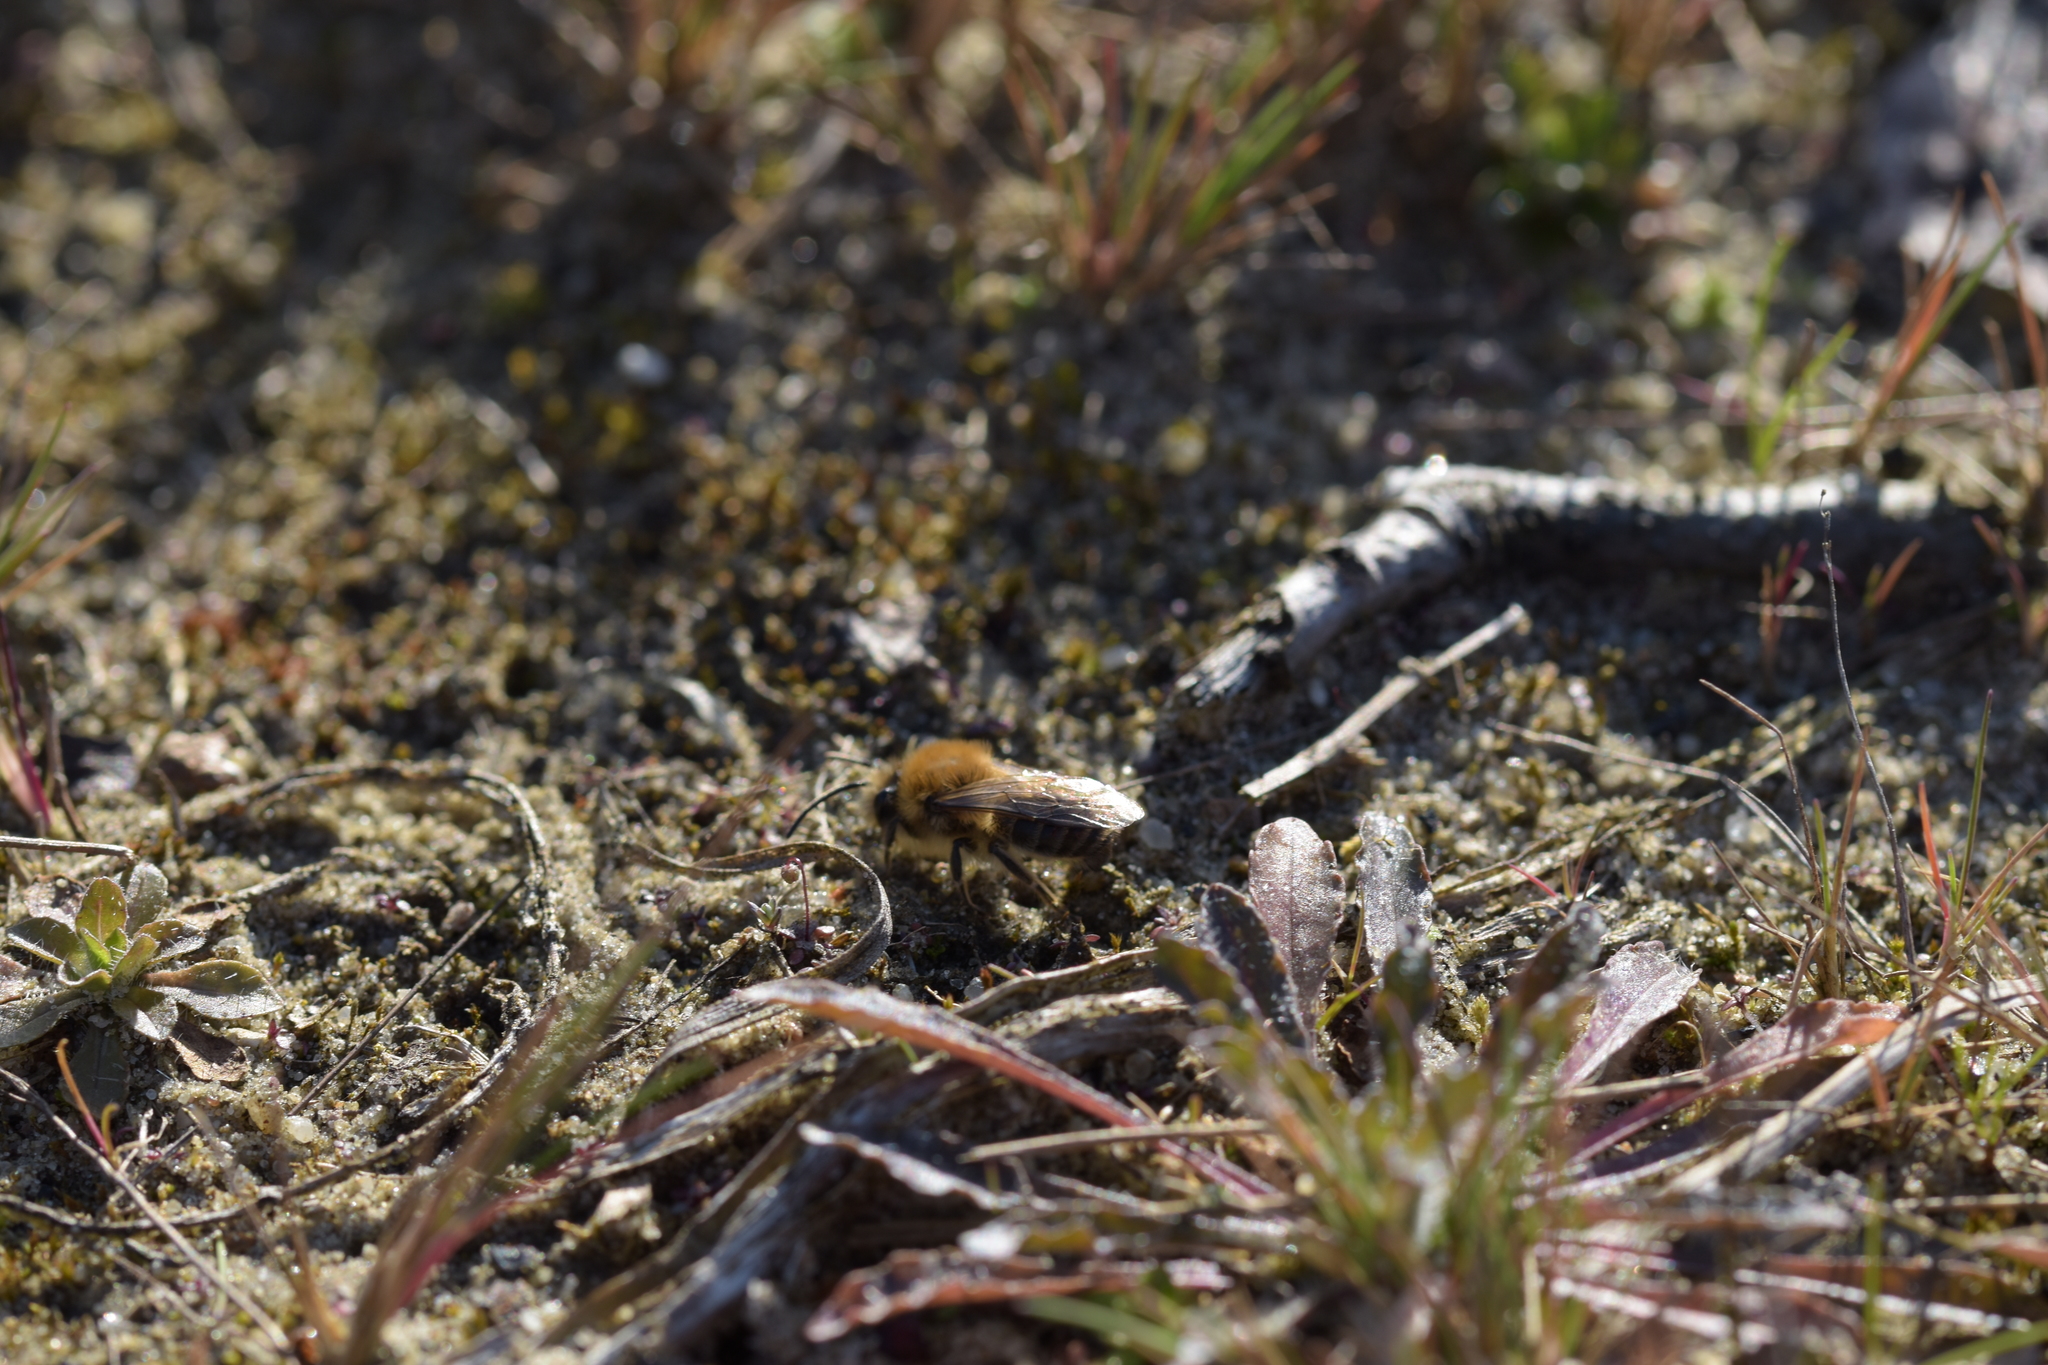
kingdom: Animalia
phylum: Arthropoda
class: Insecta
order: Hymenoptera
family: Colletidae
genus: Colletes
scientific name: Colletes cunicularius
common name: Early colletes
